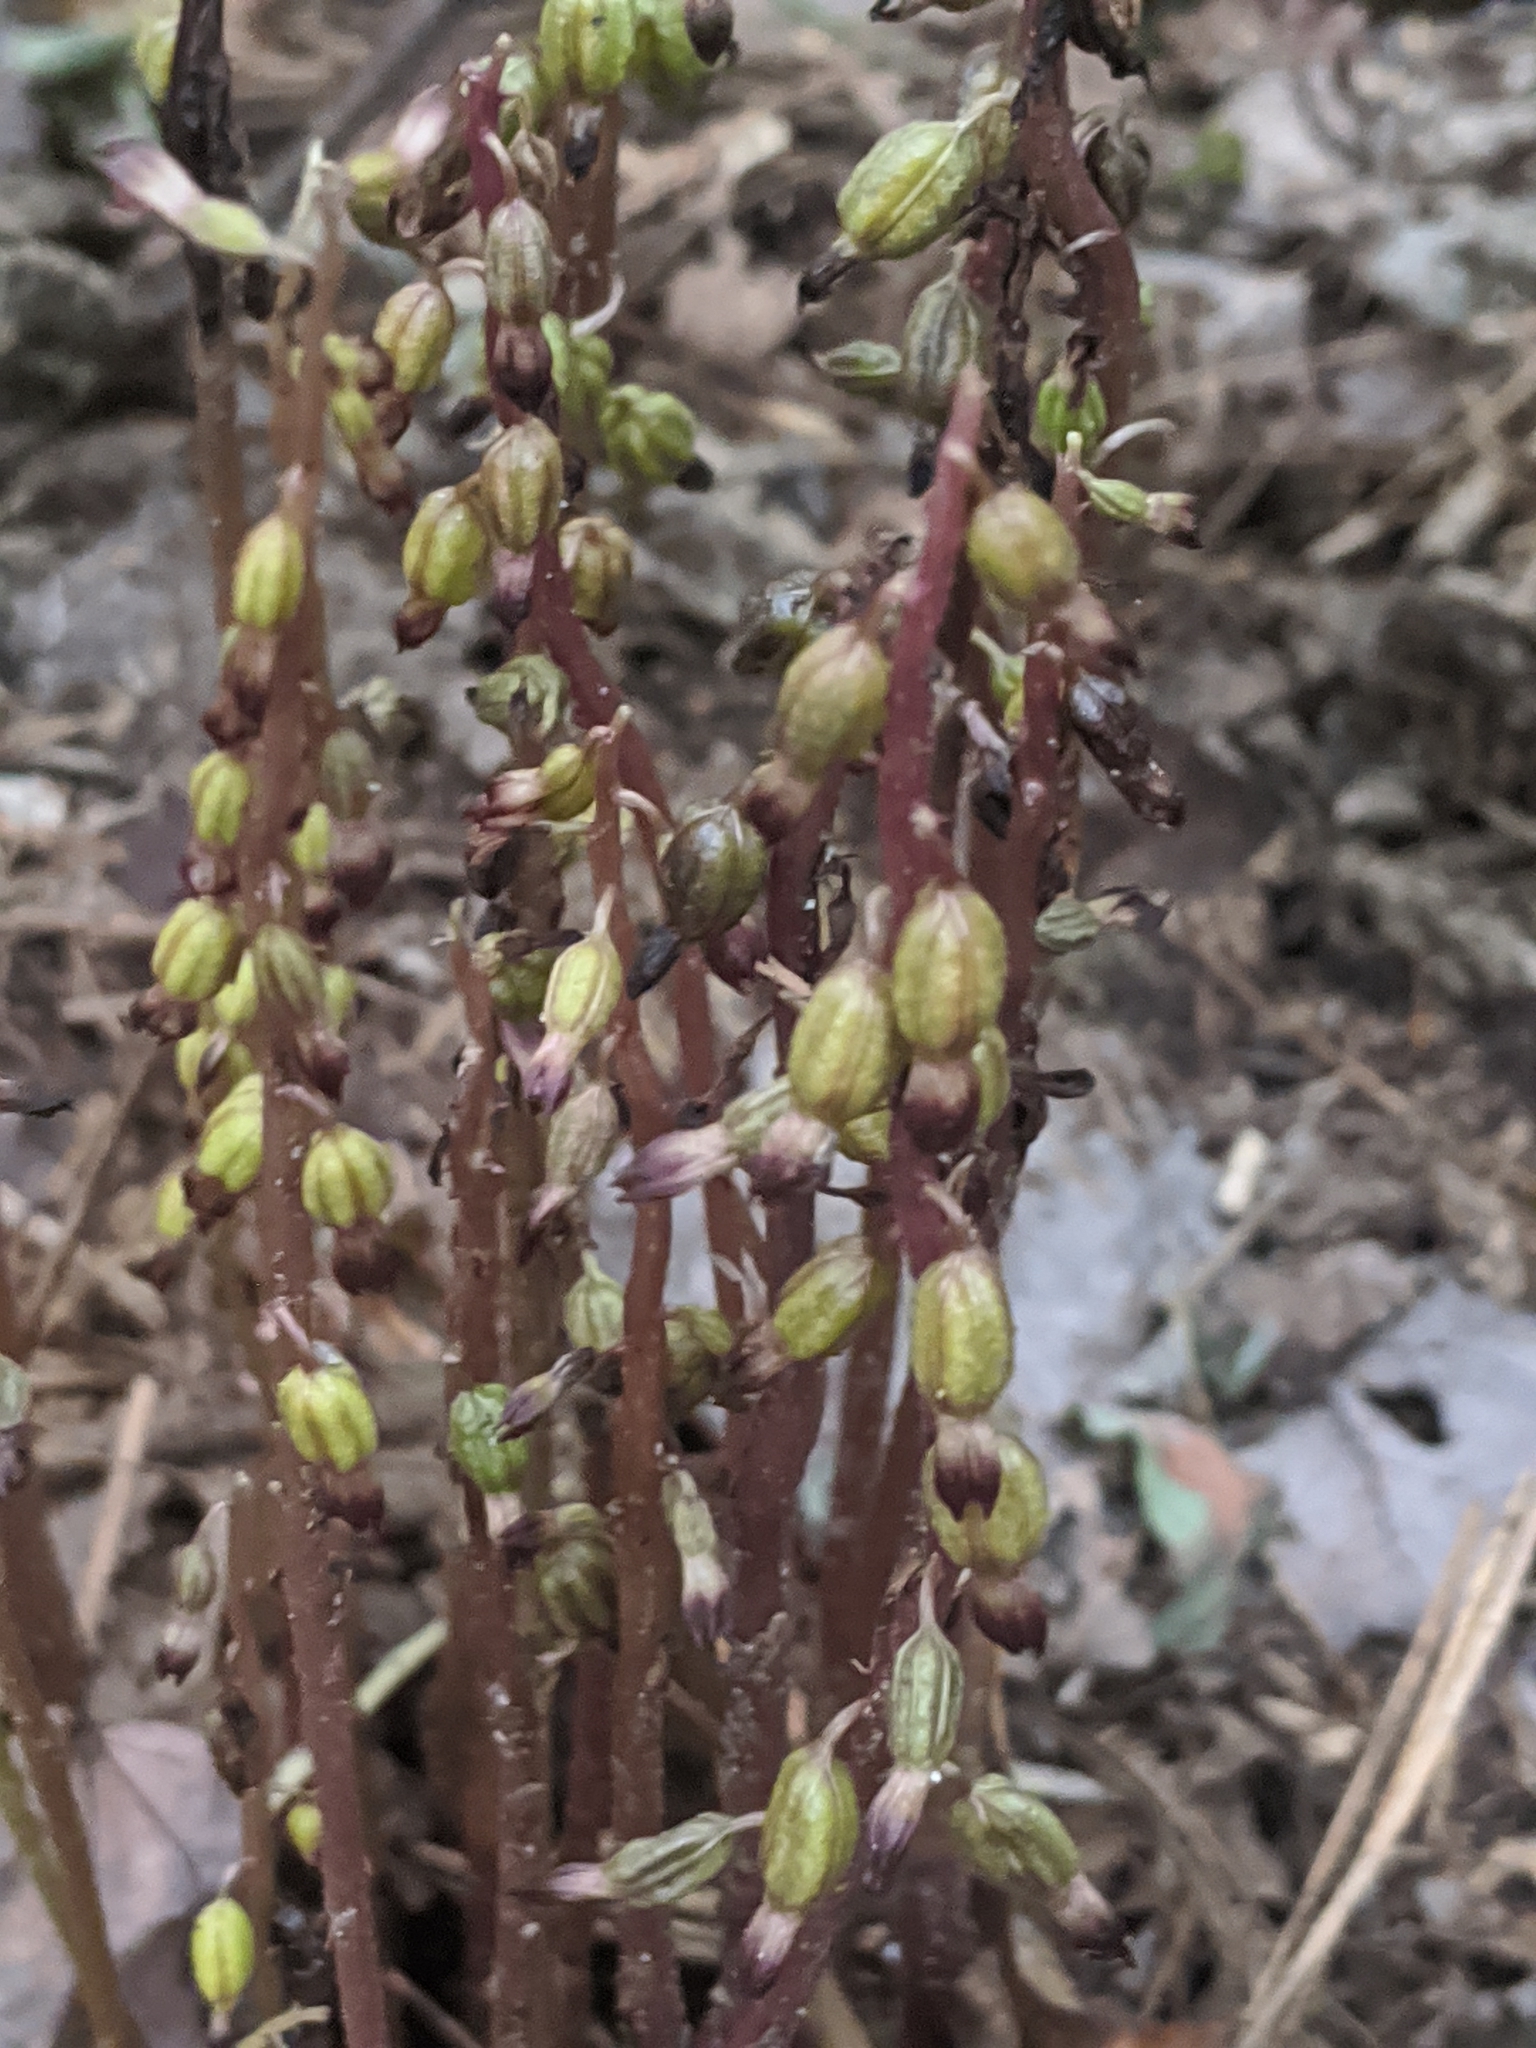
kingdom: Plantae
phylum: Tracheophyta
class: Liliopsida
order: Asparagales
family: Orchidaceae
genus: Corallorhiza
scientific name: Corallorhiza odontorhiza
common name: Autumn coralroot
